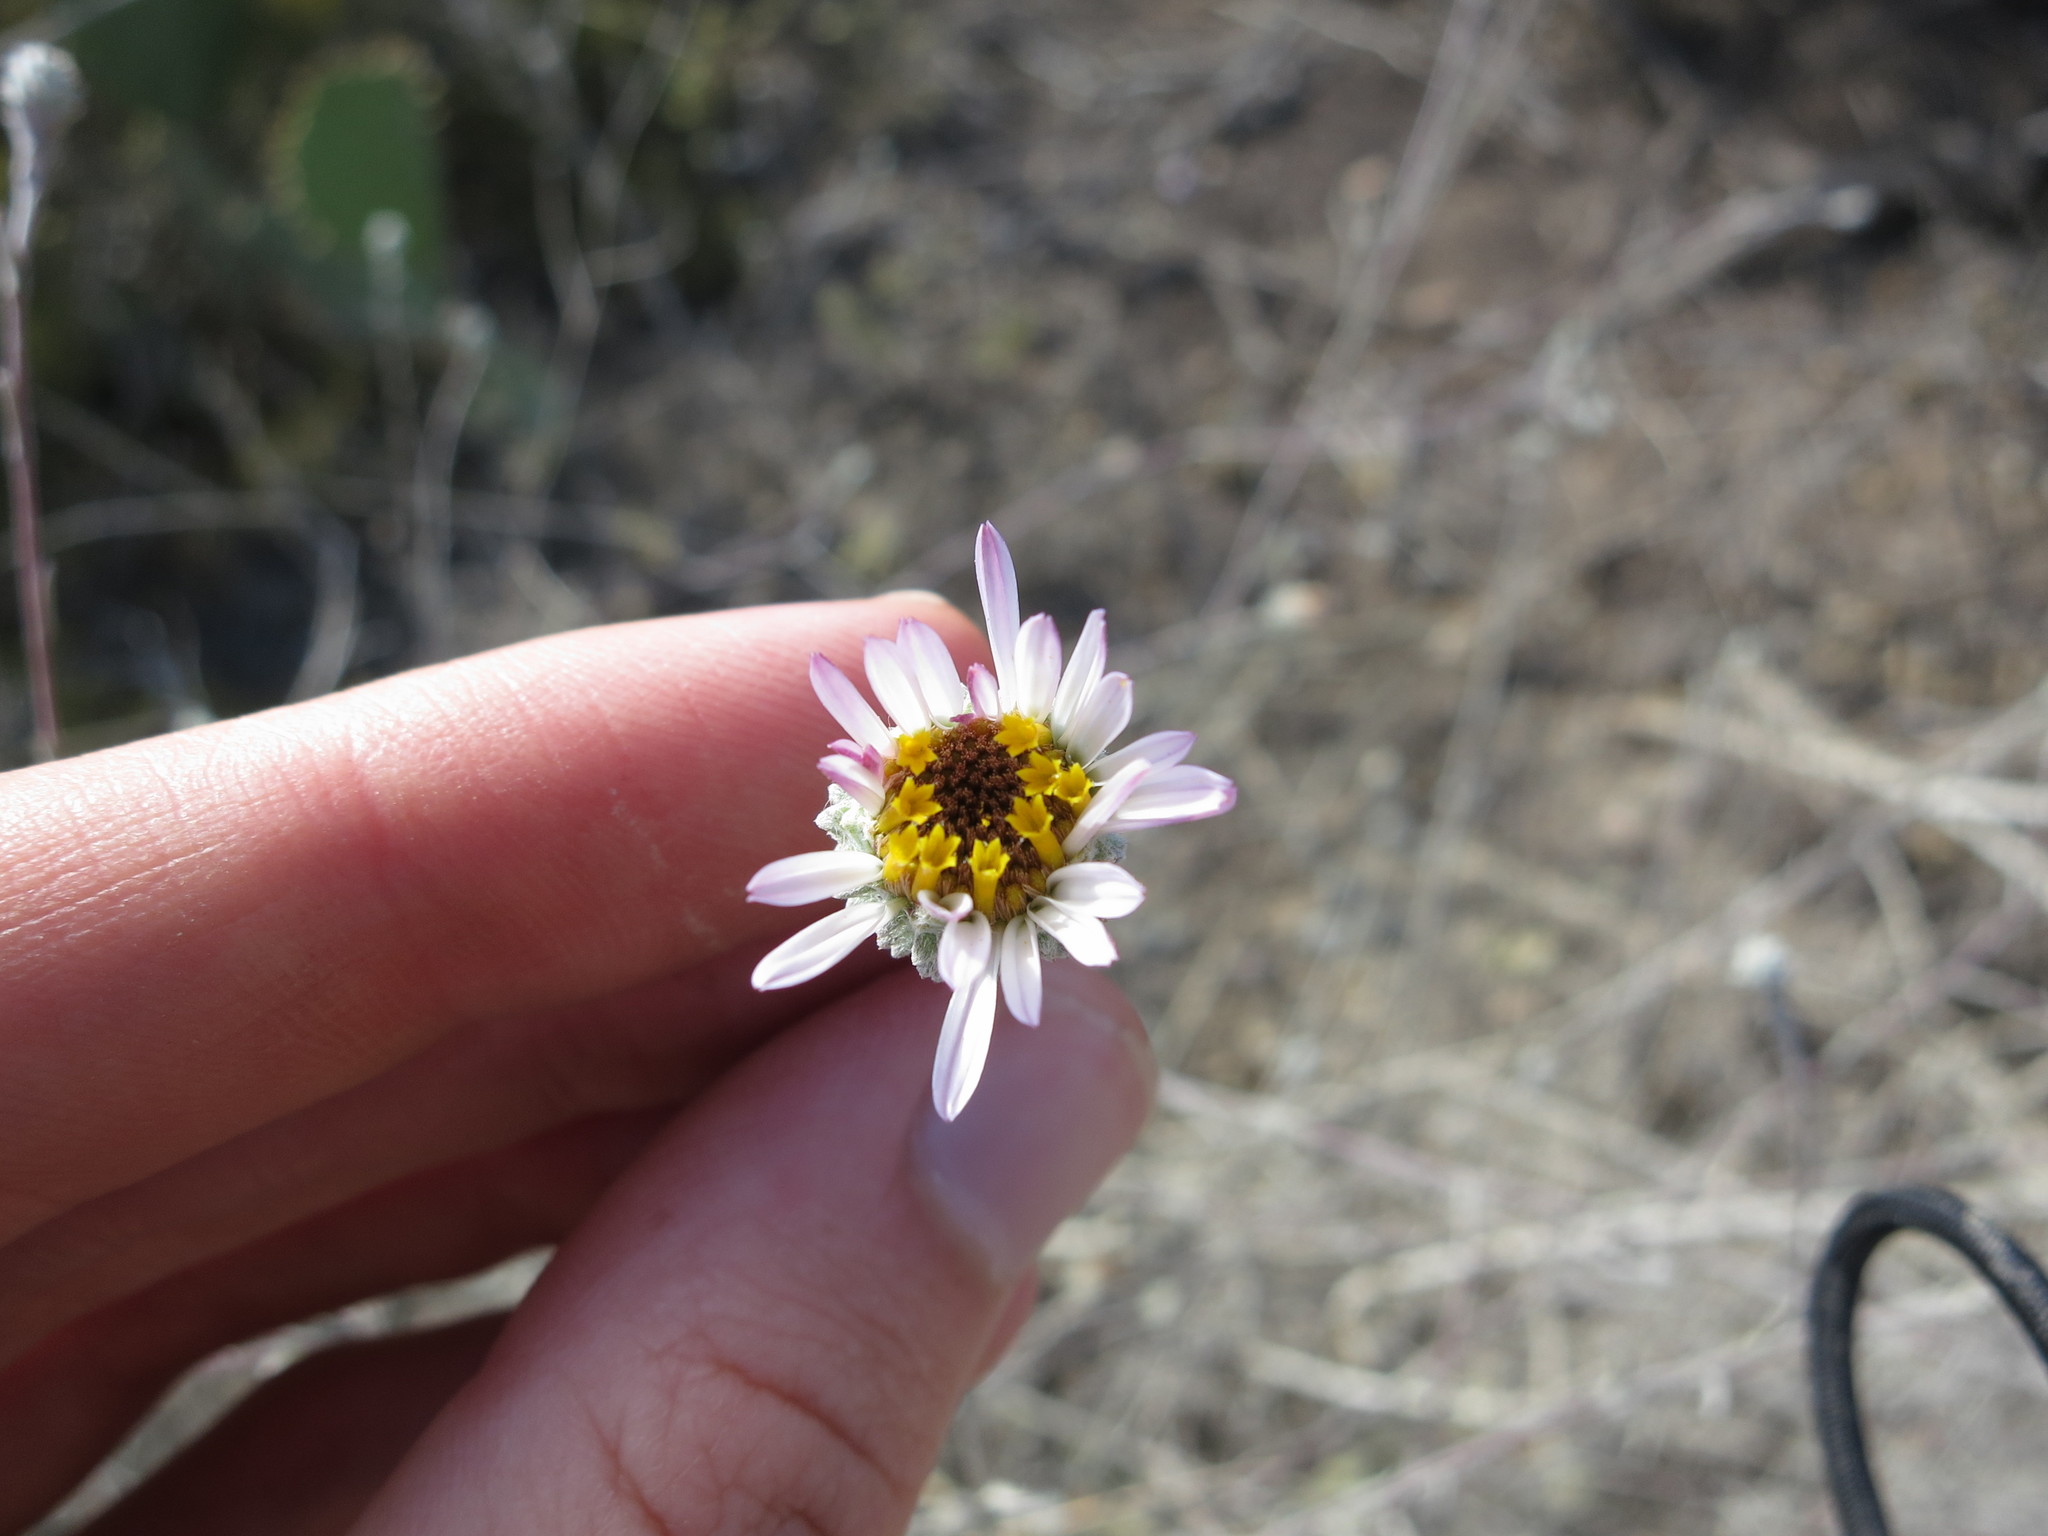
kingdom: Plantae
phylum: Tracheophyta
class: Magnoliopsida
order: Asterales
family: Asteraceae
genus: Corethrogyne
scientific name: Corethrogyne filaginifolia
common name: Sand-aster
